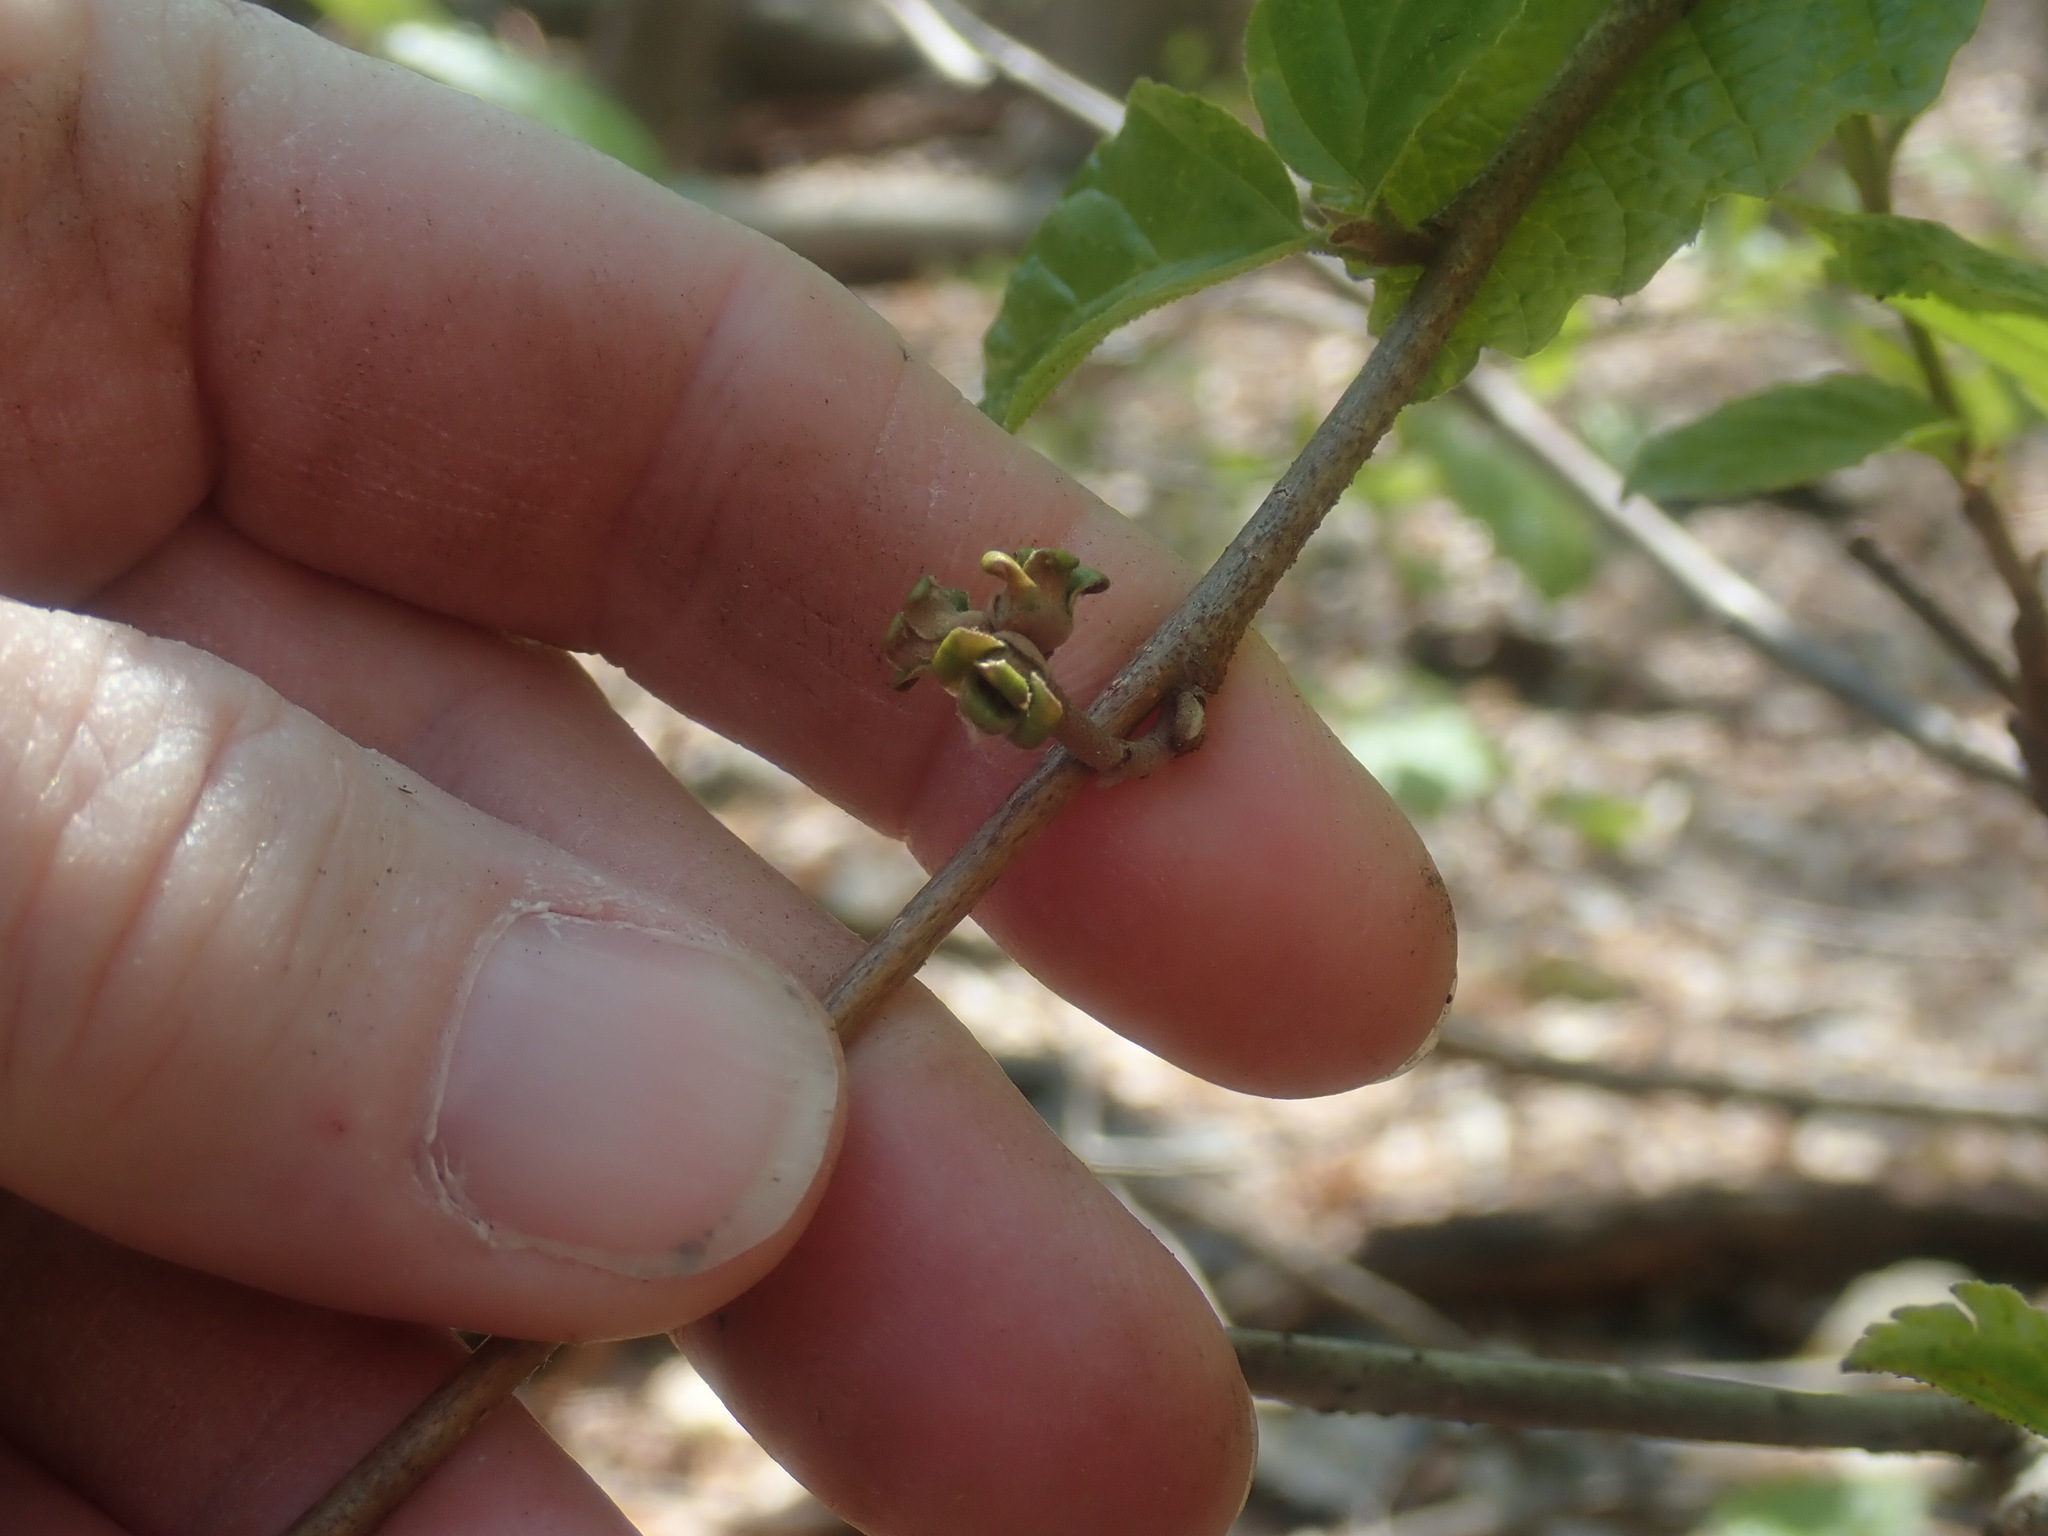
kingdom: Plantae
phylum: Tracheophyta
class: Magnoliopsida
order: Saxifragales
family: Hamamelidaceae
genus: Hamamelis
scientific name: Hamamelis virginiana
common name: Witch-hazel
